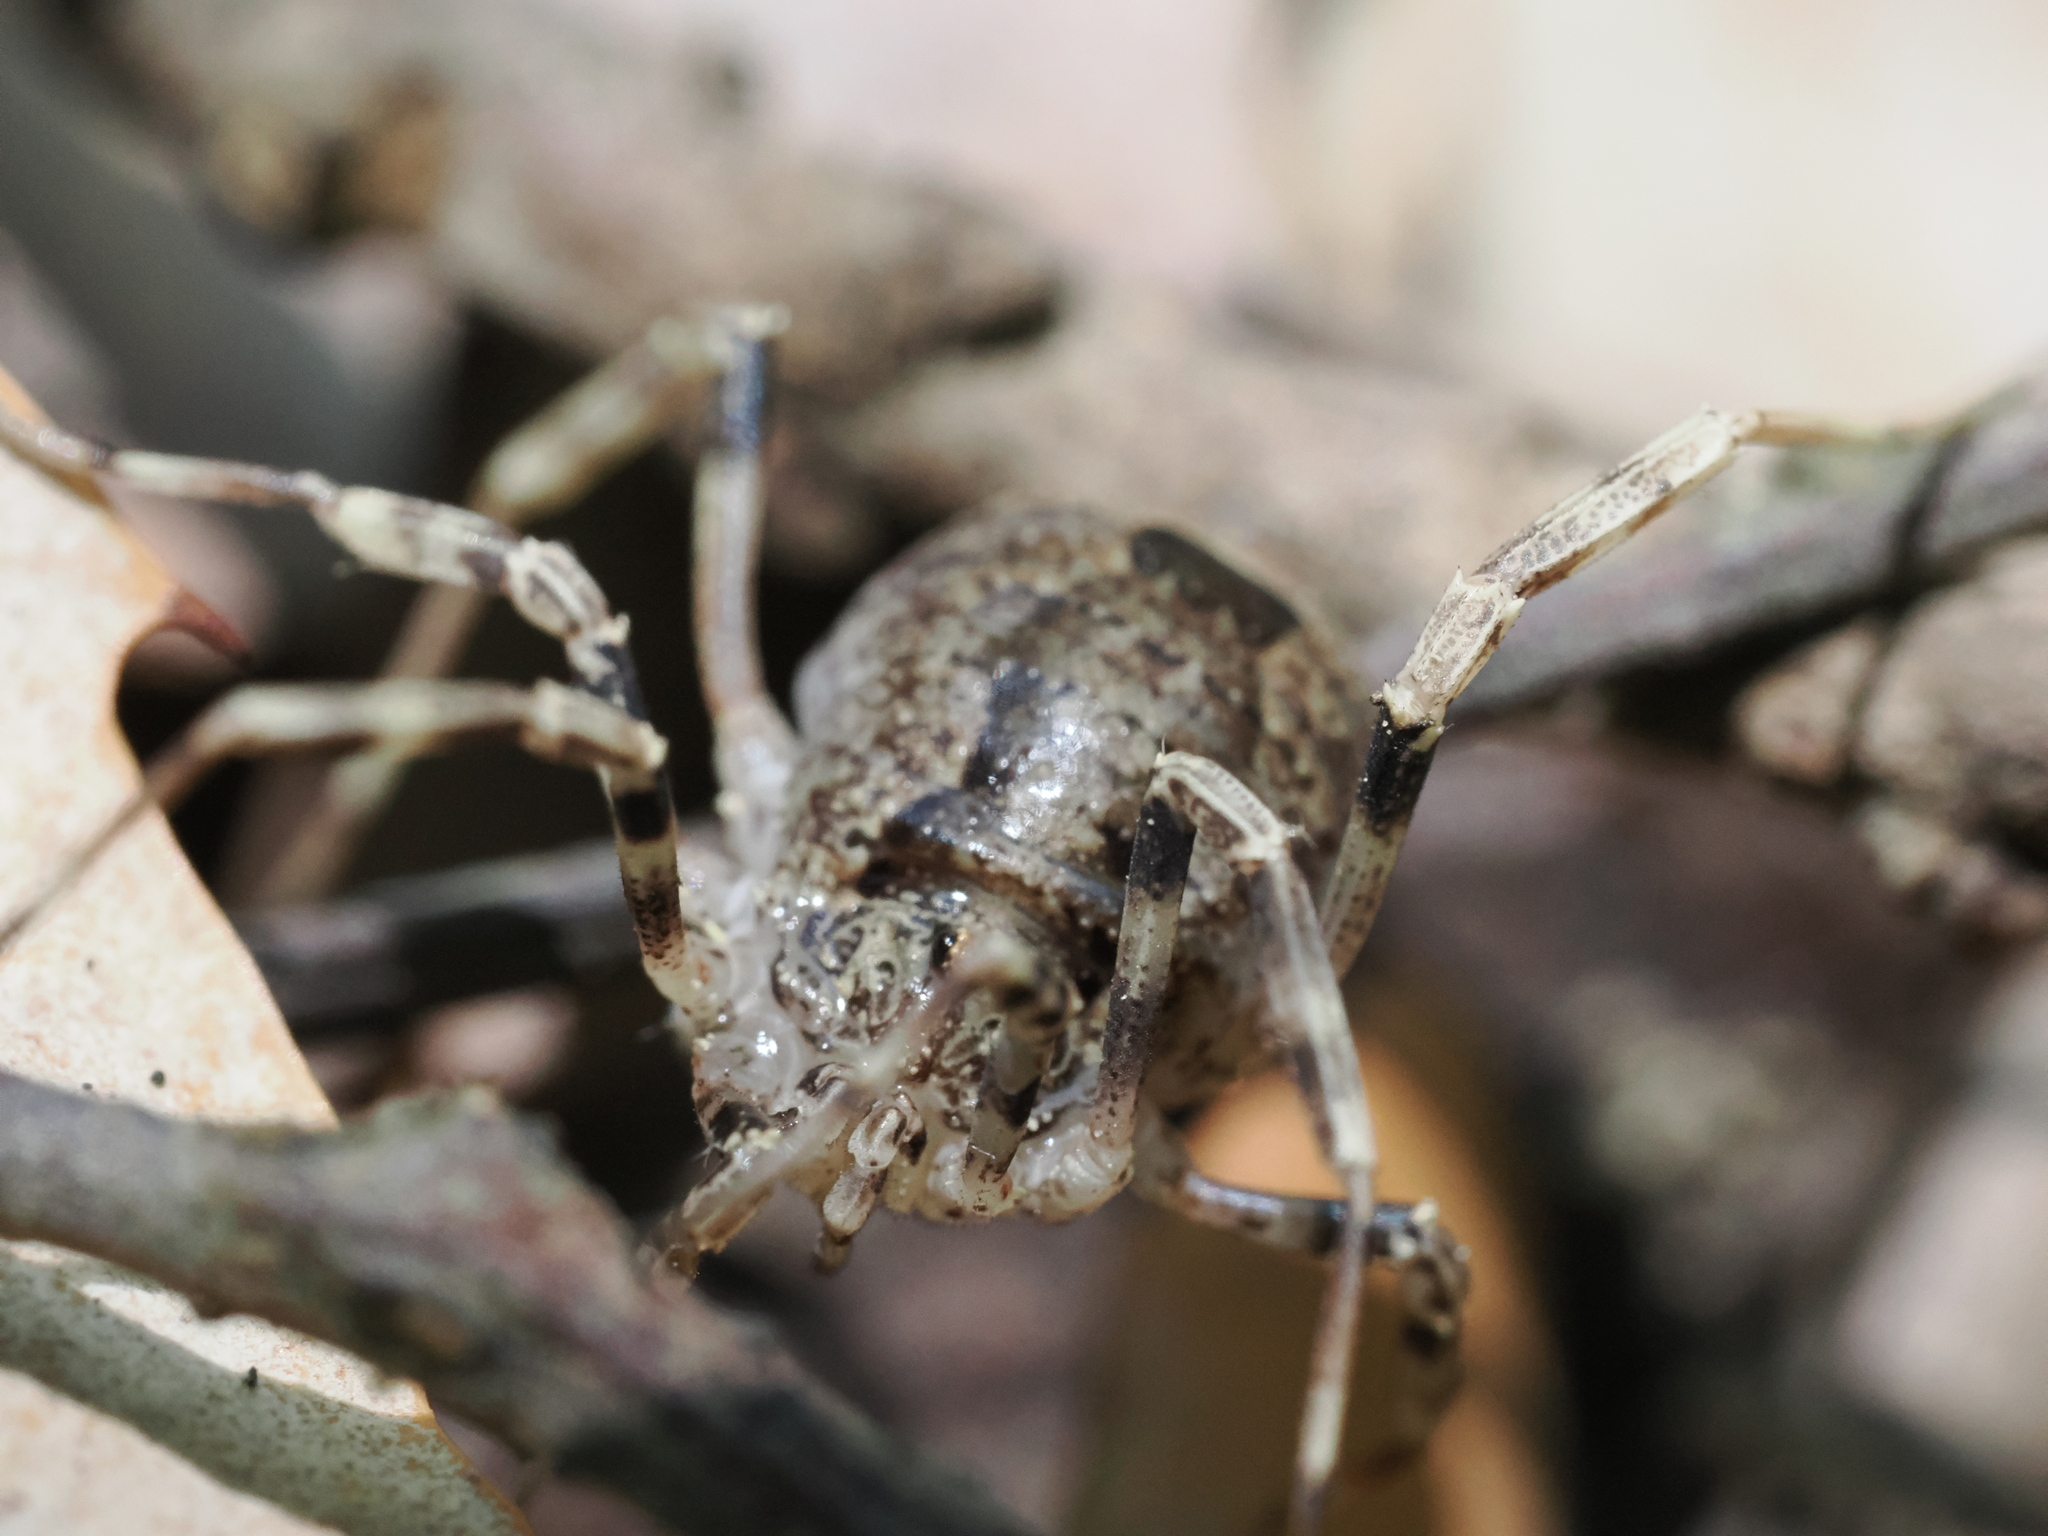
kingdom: Animalia
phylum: Arthropoda
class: Arachnida
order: Opiliones
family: Phalangiidae
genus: Odiellus
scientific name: Odiellus spinosus
